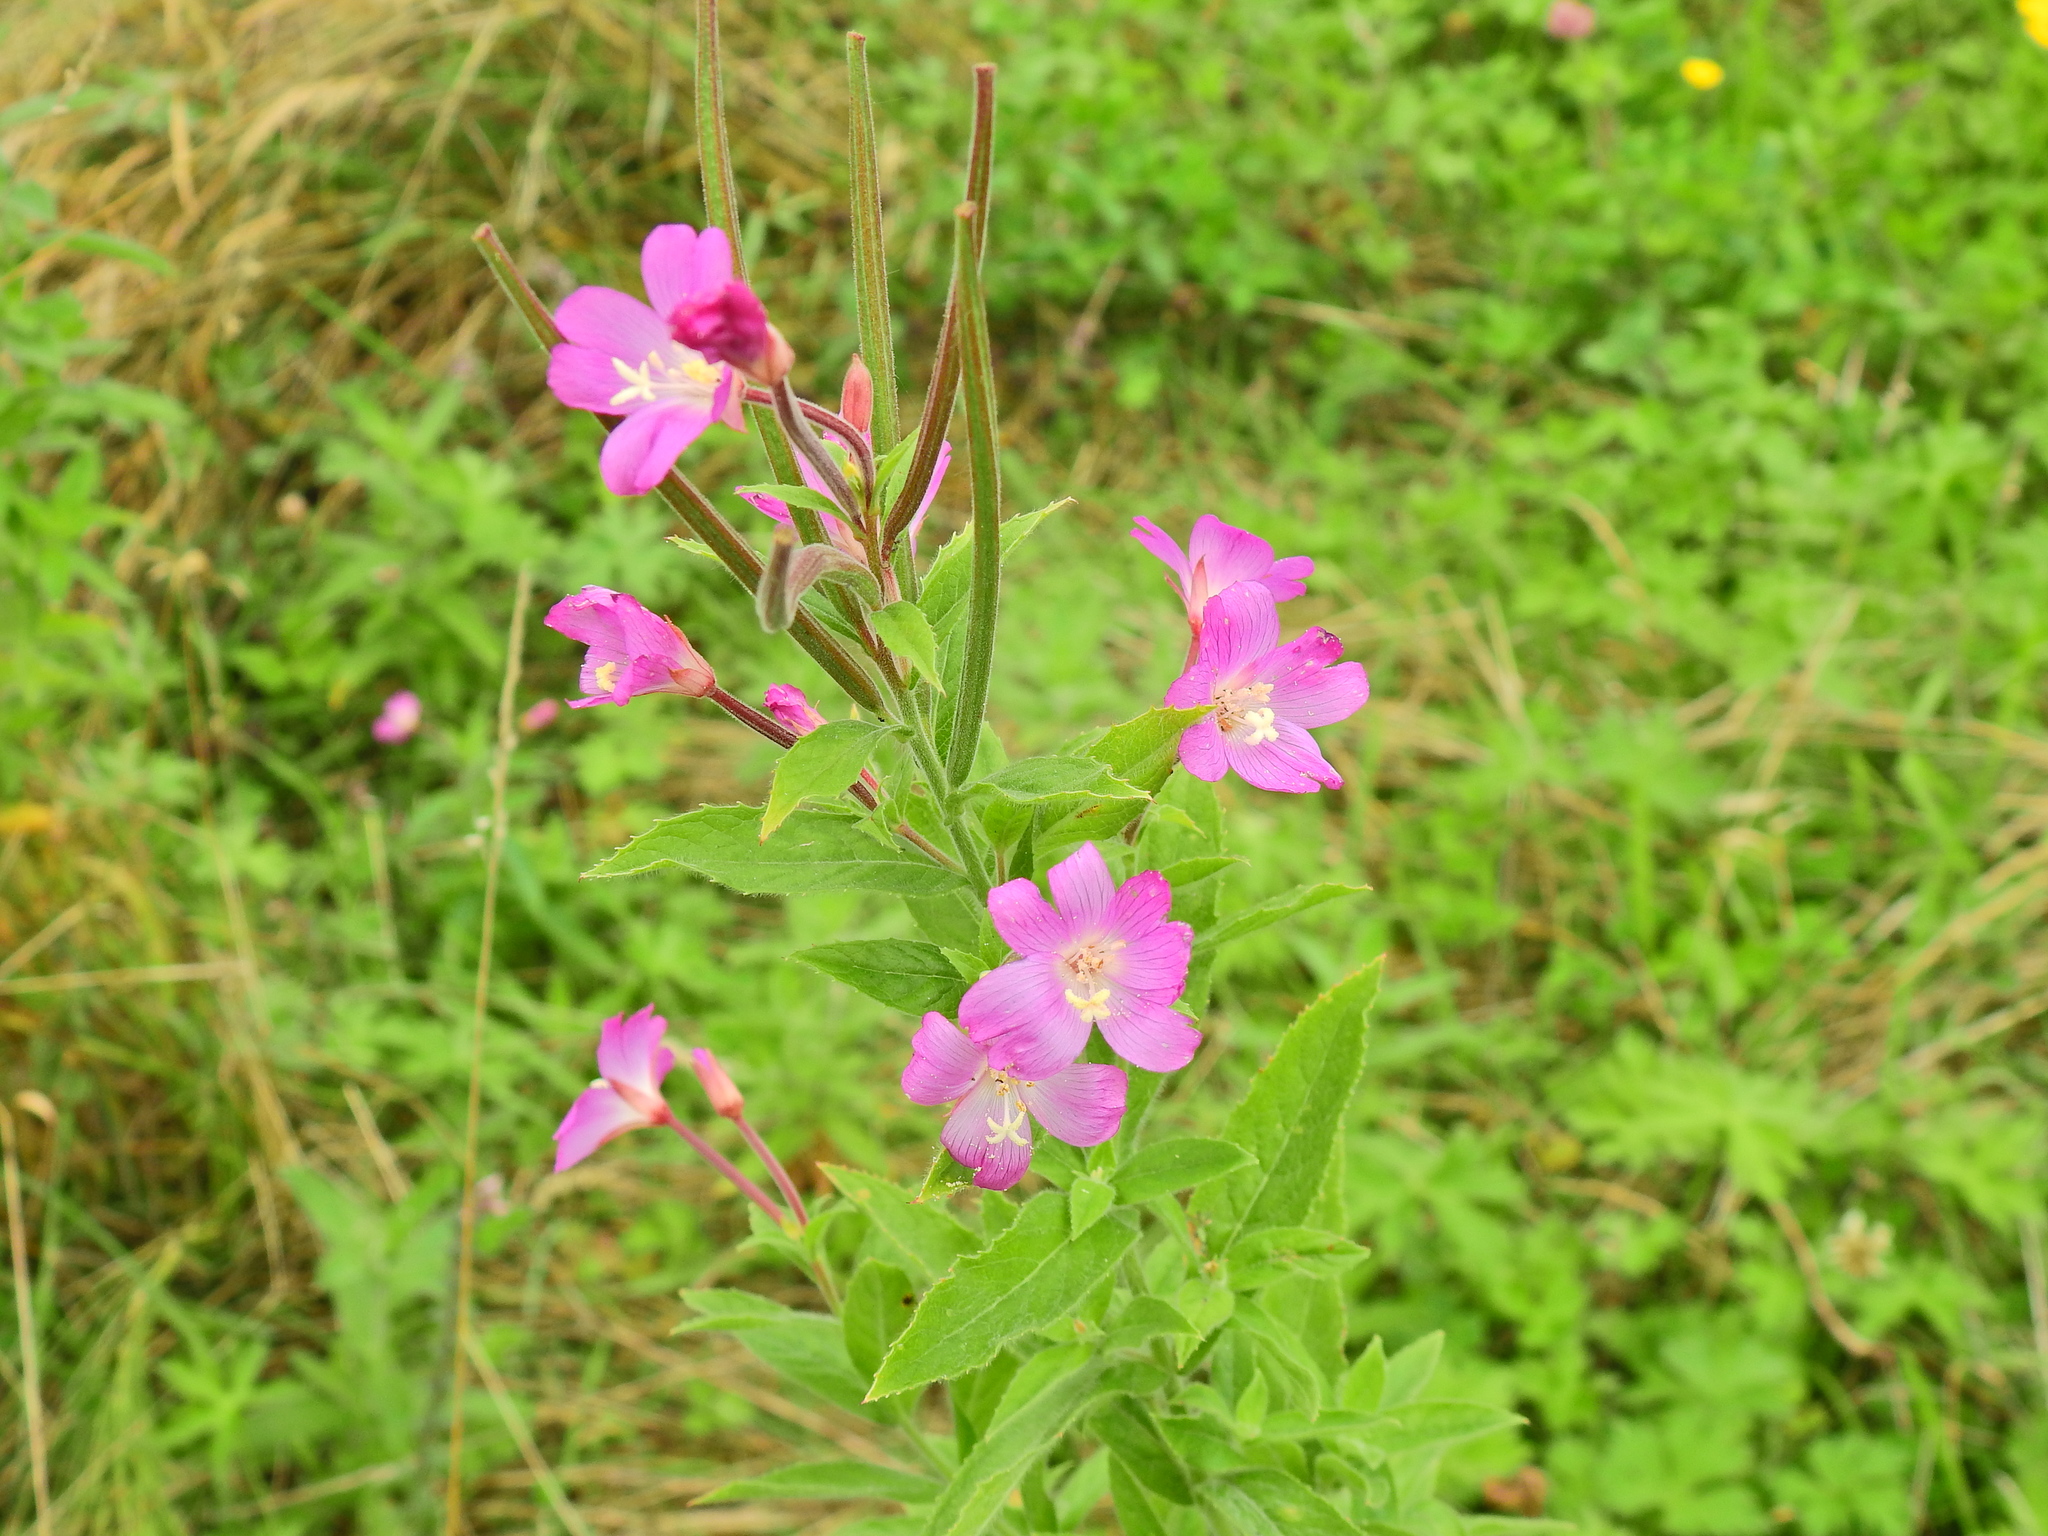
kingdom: Plantae
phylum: Tracheophyta
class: Magnoliopsida
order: Myrtales
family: Onagraceae
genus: Epilobium
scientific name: Epilobium hirsutum
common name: Great willowherb
